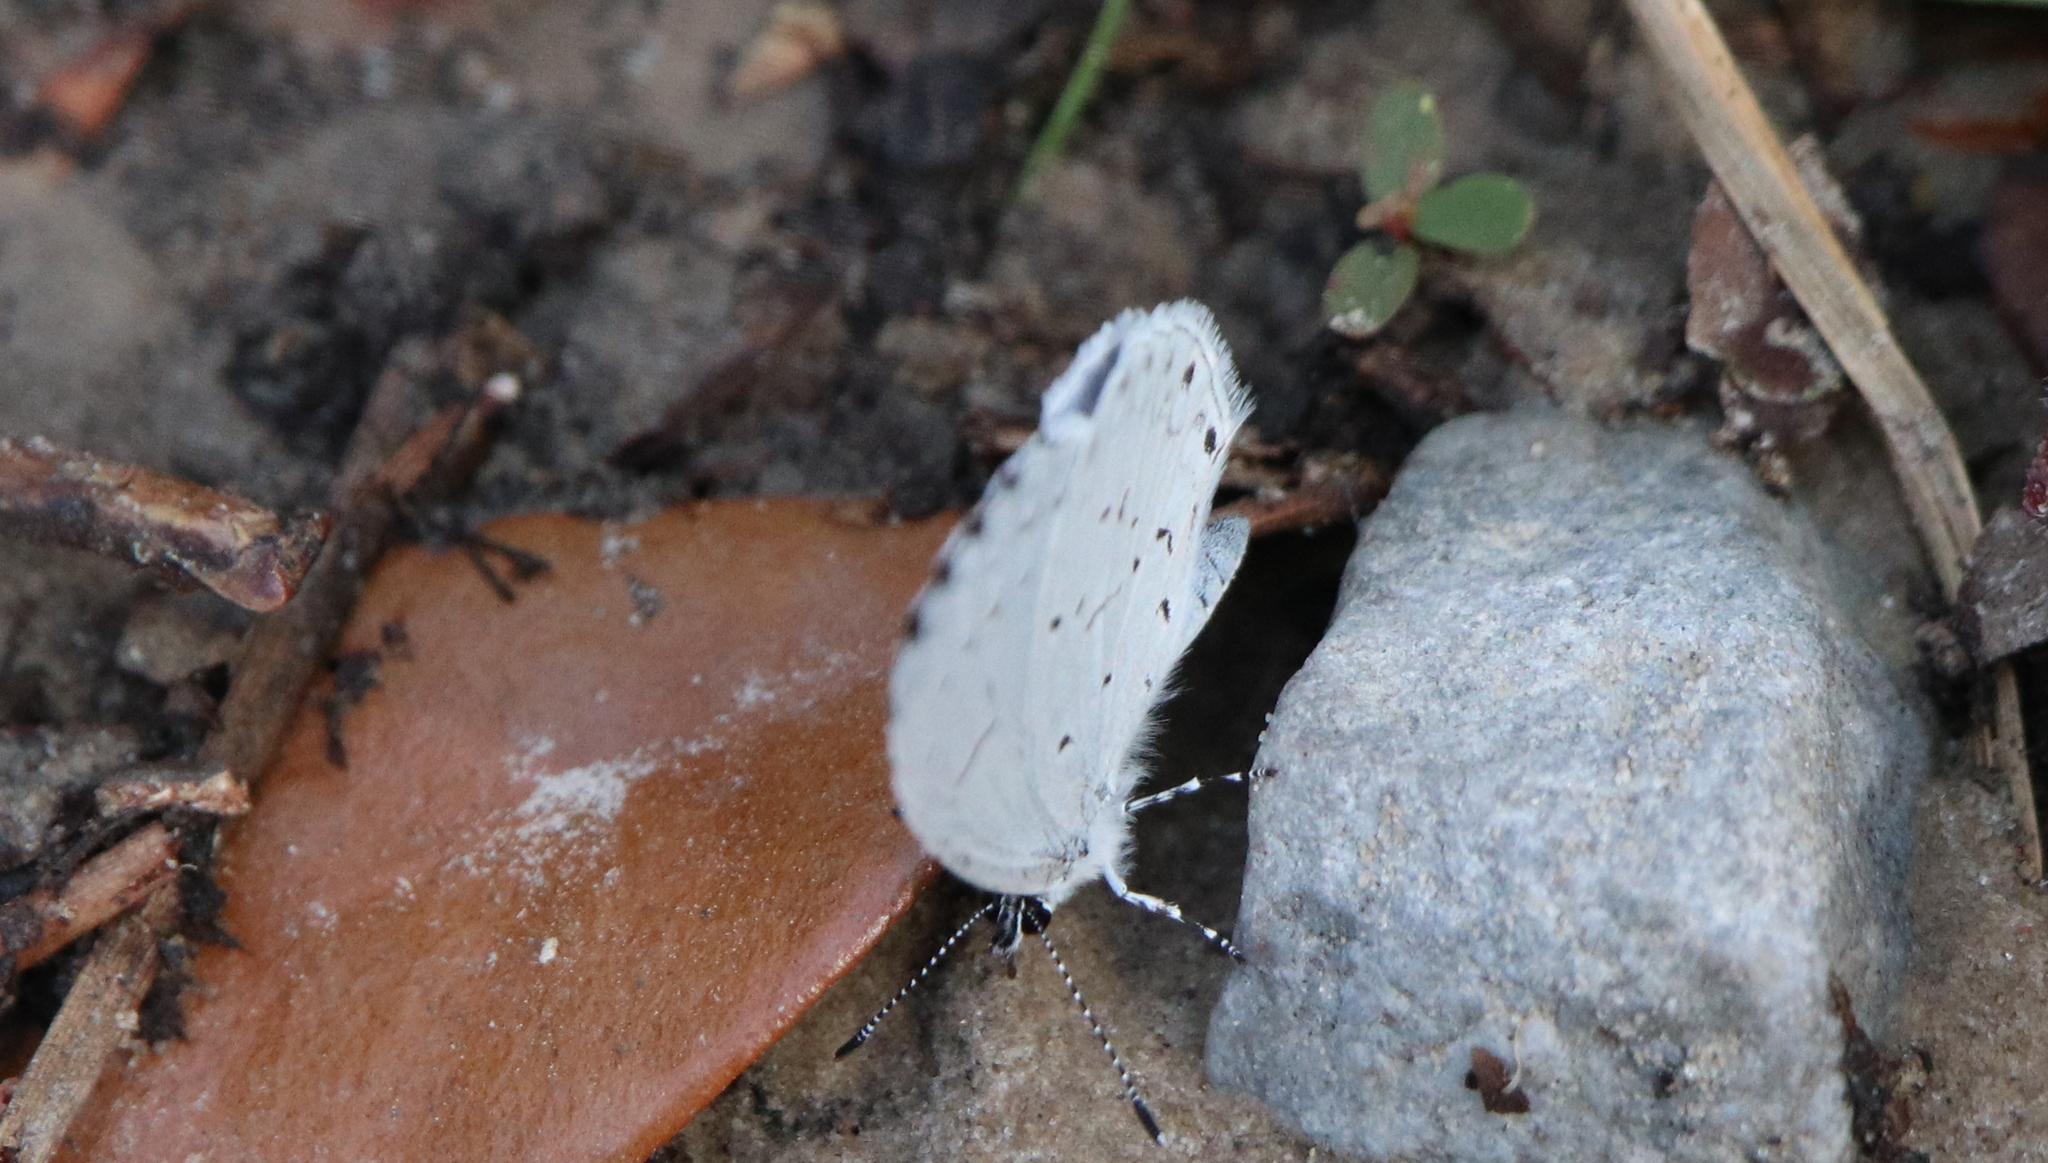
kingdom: Animalia
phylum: Arthropoda
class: Insecta
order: Lepidoptera
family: Lycaenidae
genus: Cyaniris
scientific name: Cyaniris neglecta
